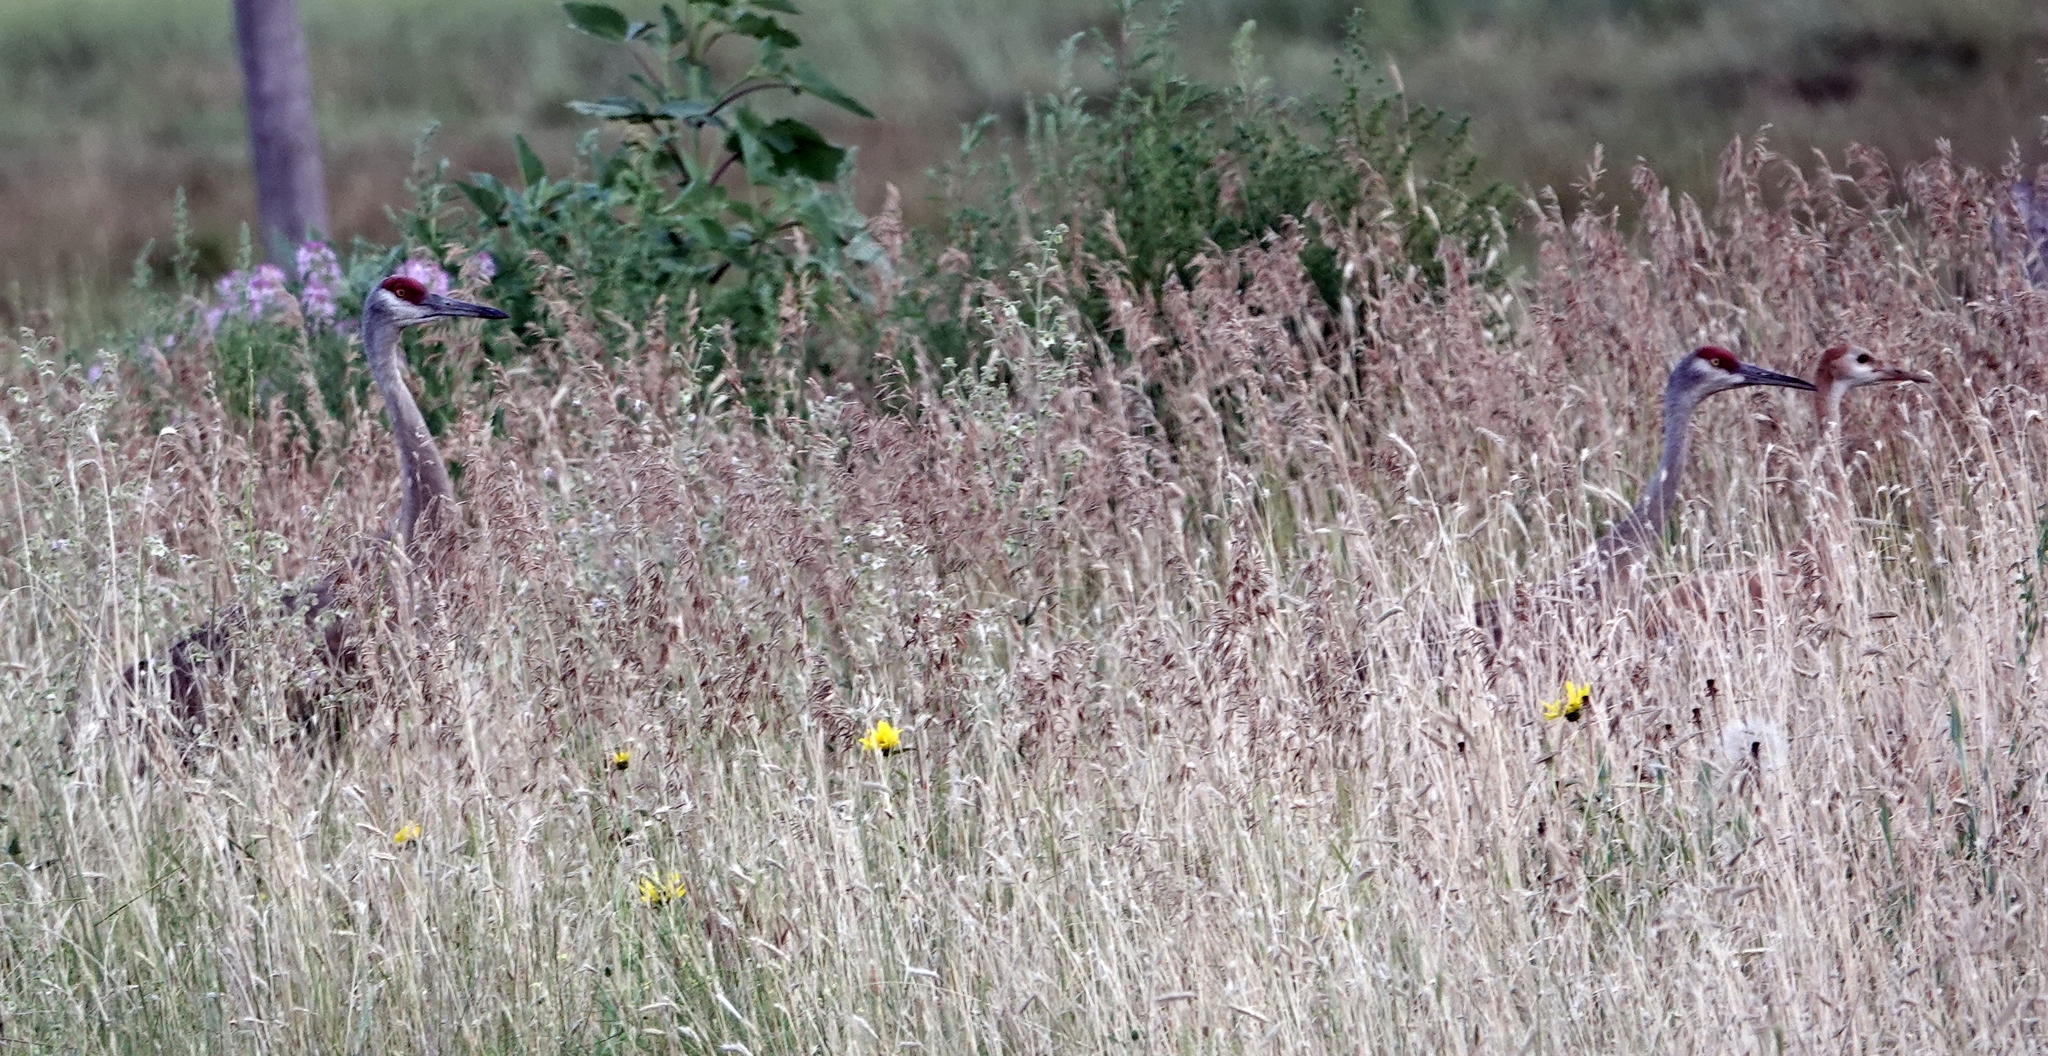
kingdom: Animalia
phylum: Chordata
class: Aves
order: Gruiformes
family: Gruidae
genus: Grus
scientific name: Grus canadensis
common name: Sandhill crane
